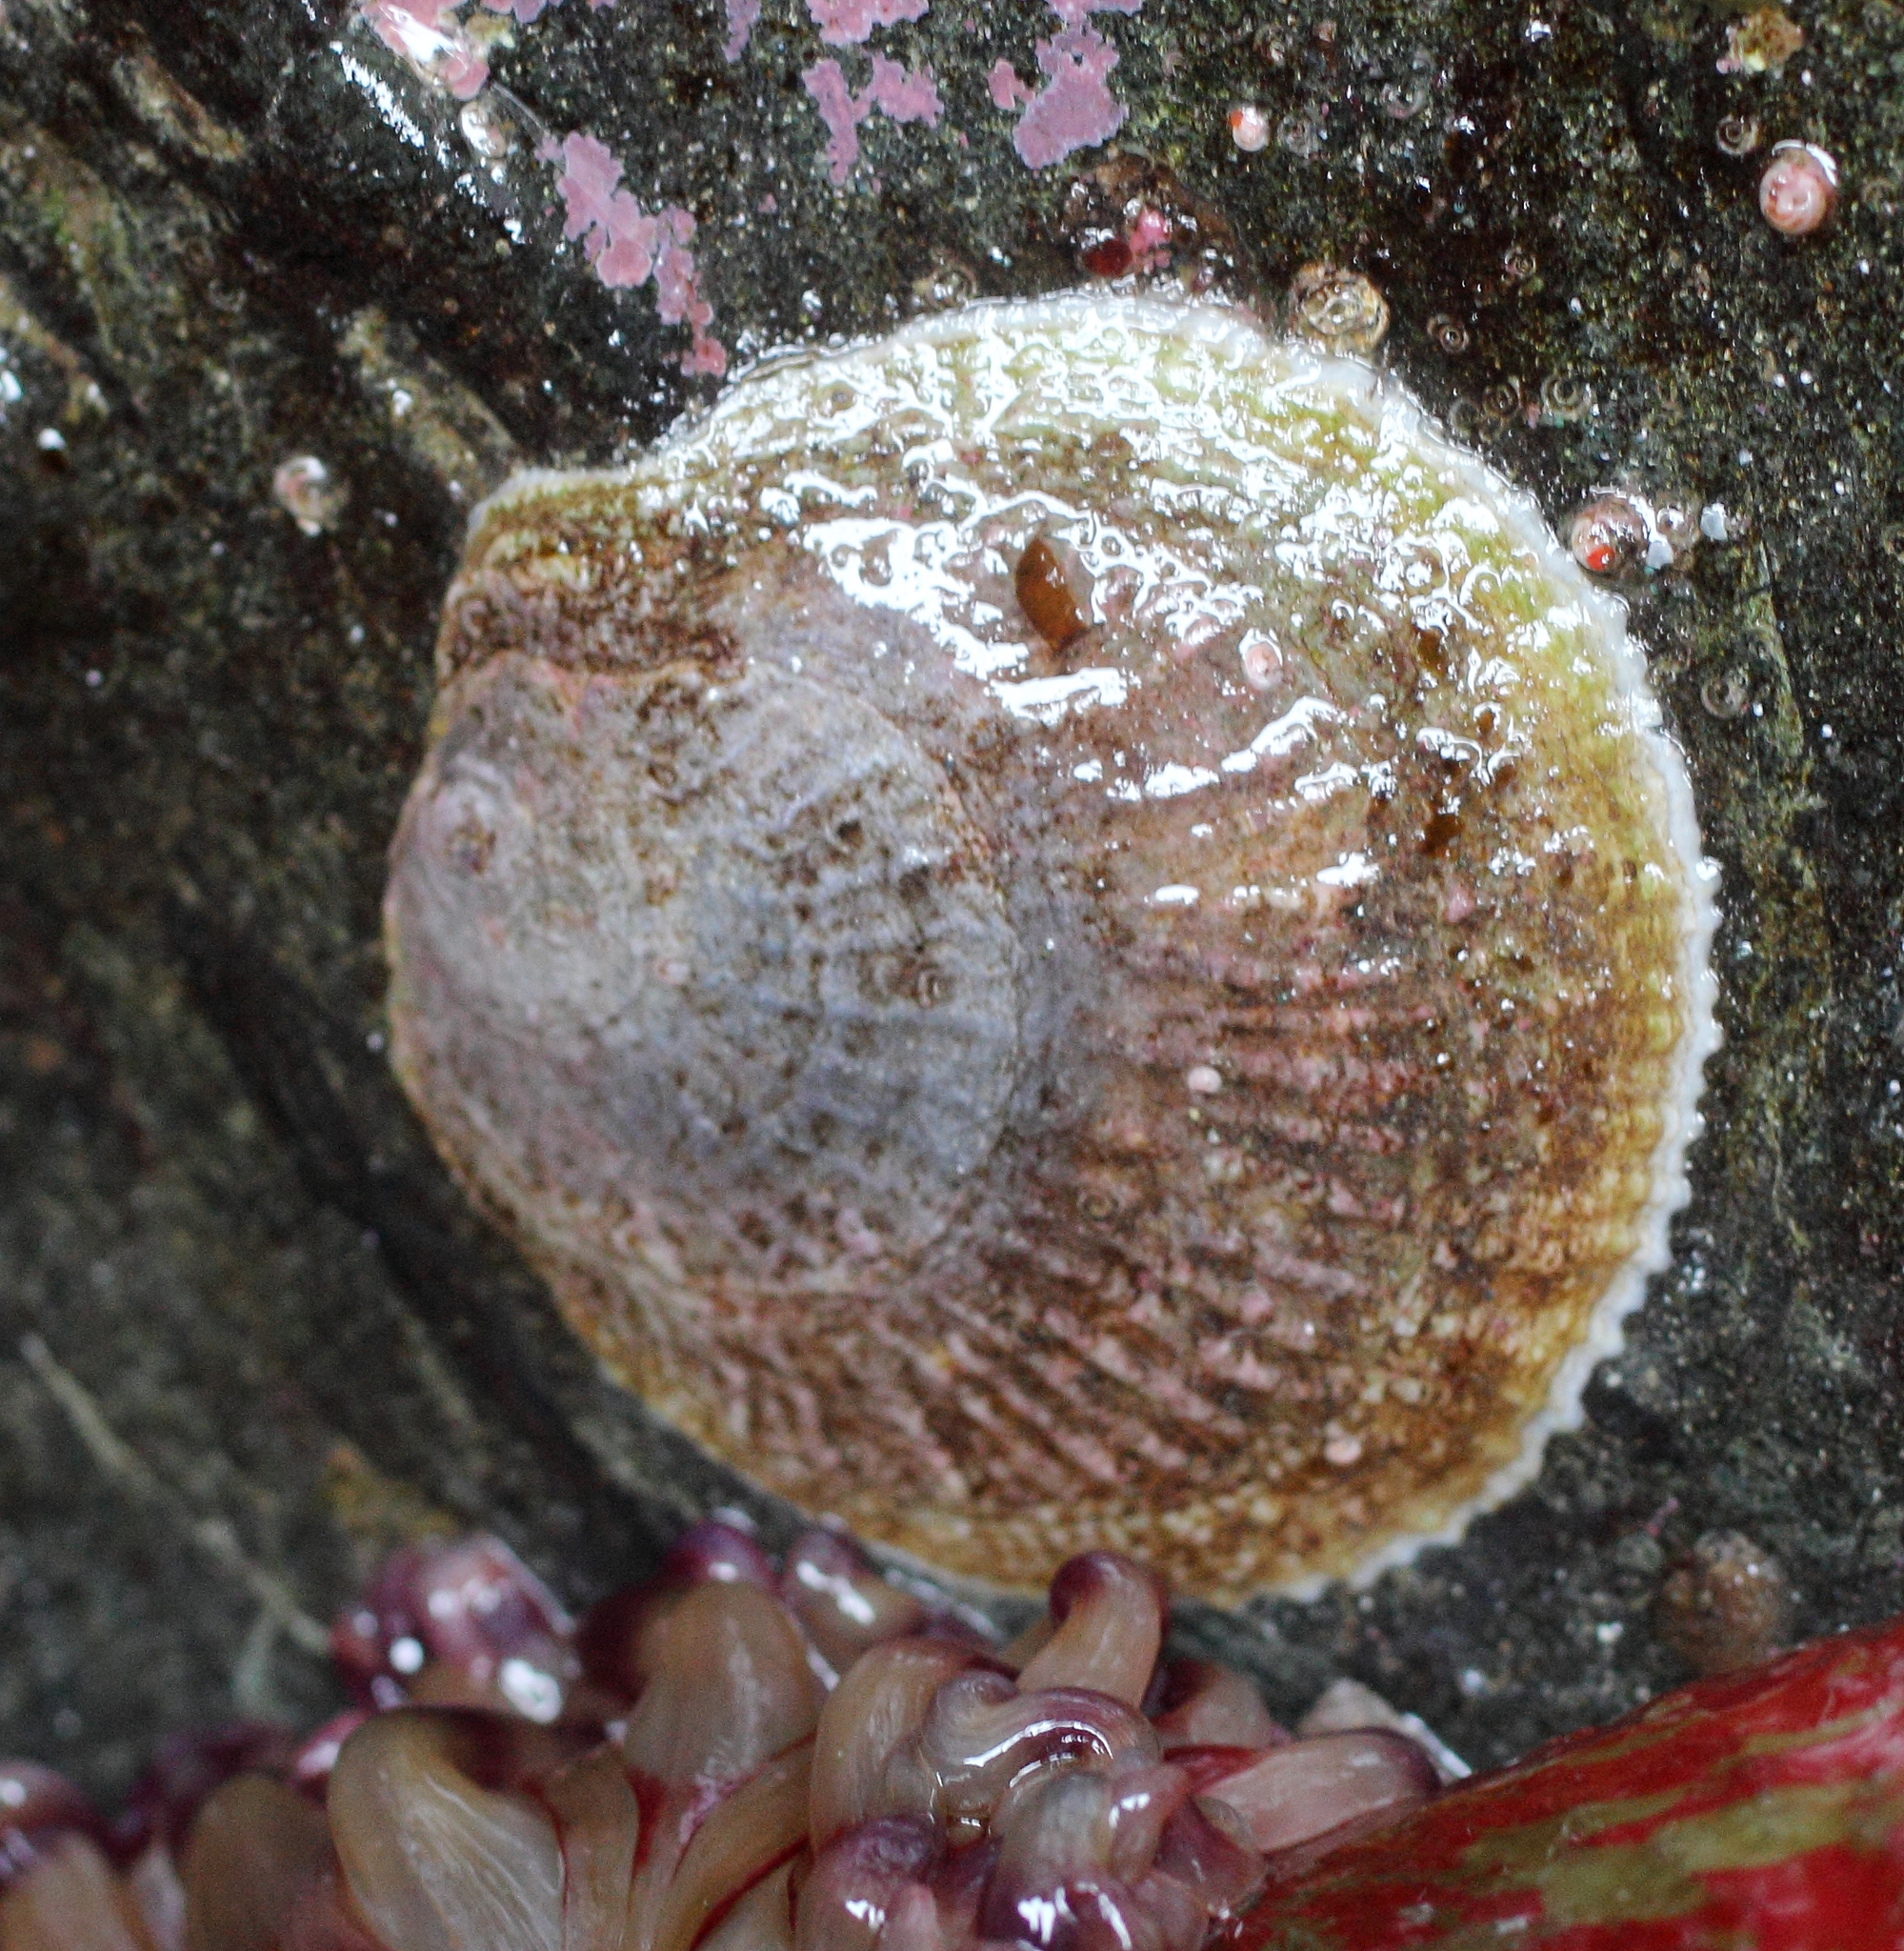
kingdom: Animalia
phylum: Mollusca
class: Bivalvia
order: Pectinida
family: Anomiidae
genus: Pododesmus
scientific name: Pododesmus macrochisma
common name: Alaska jingle
